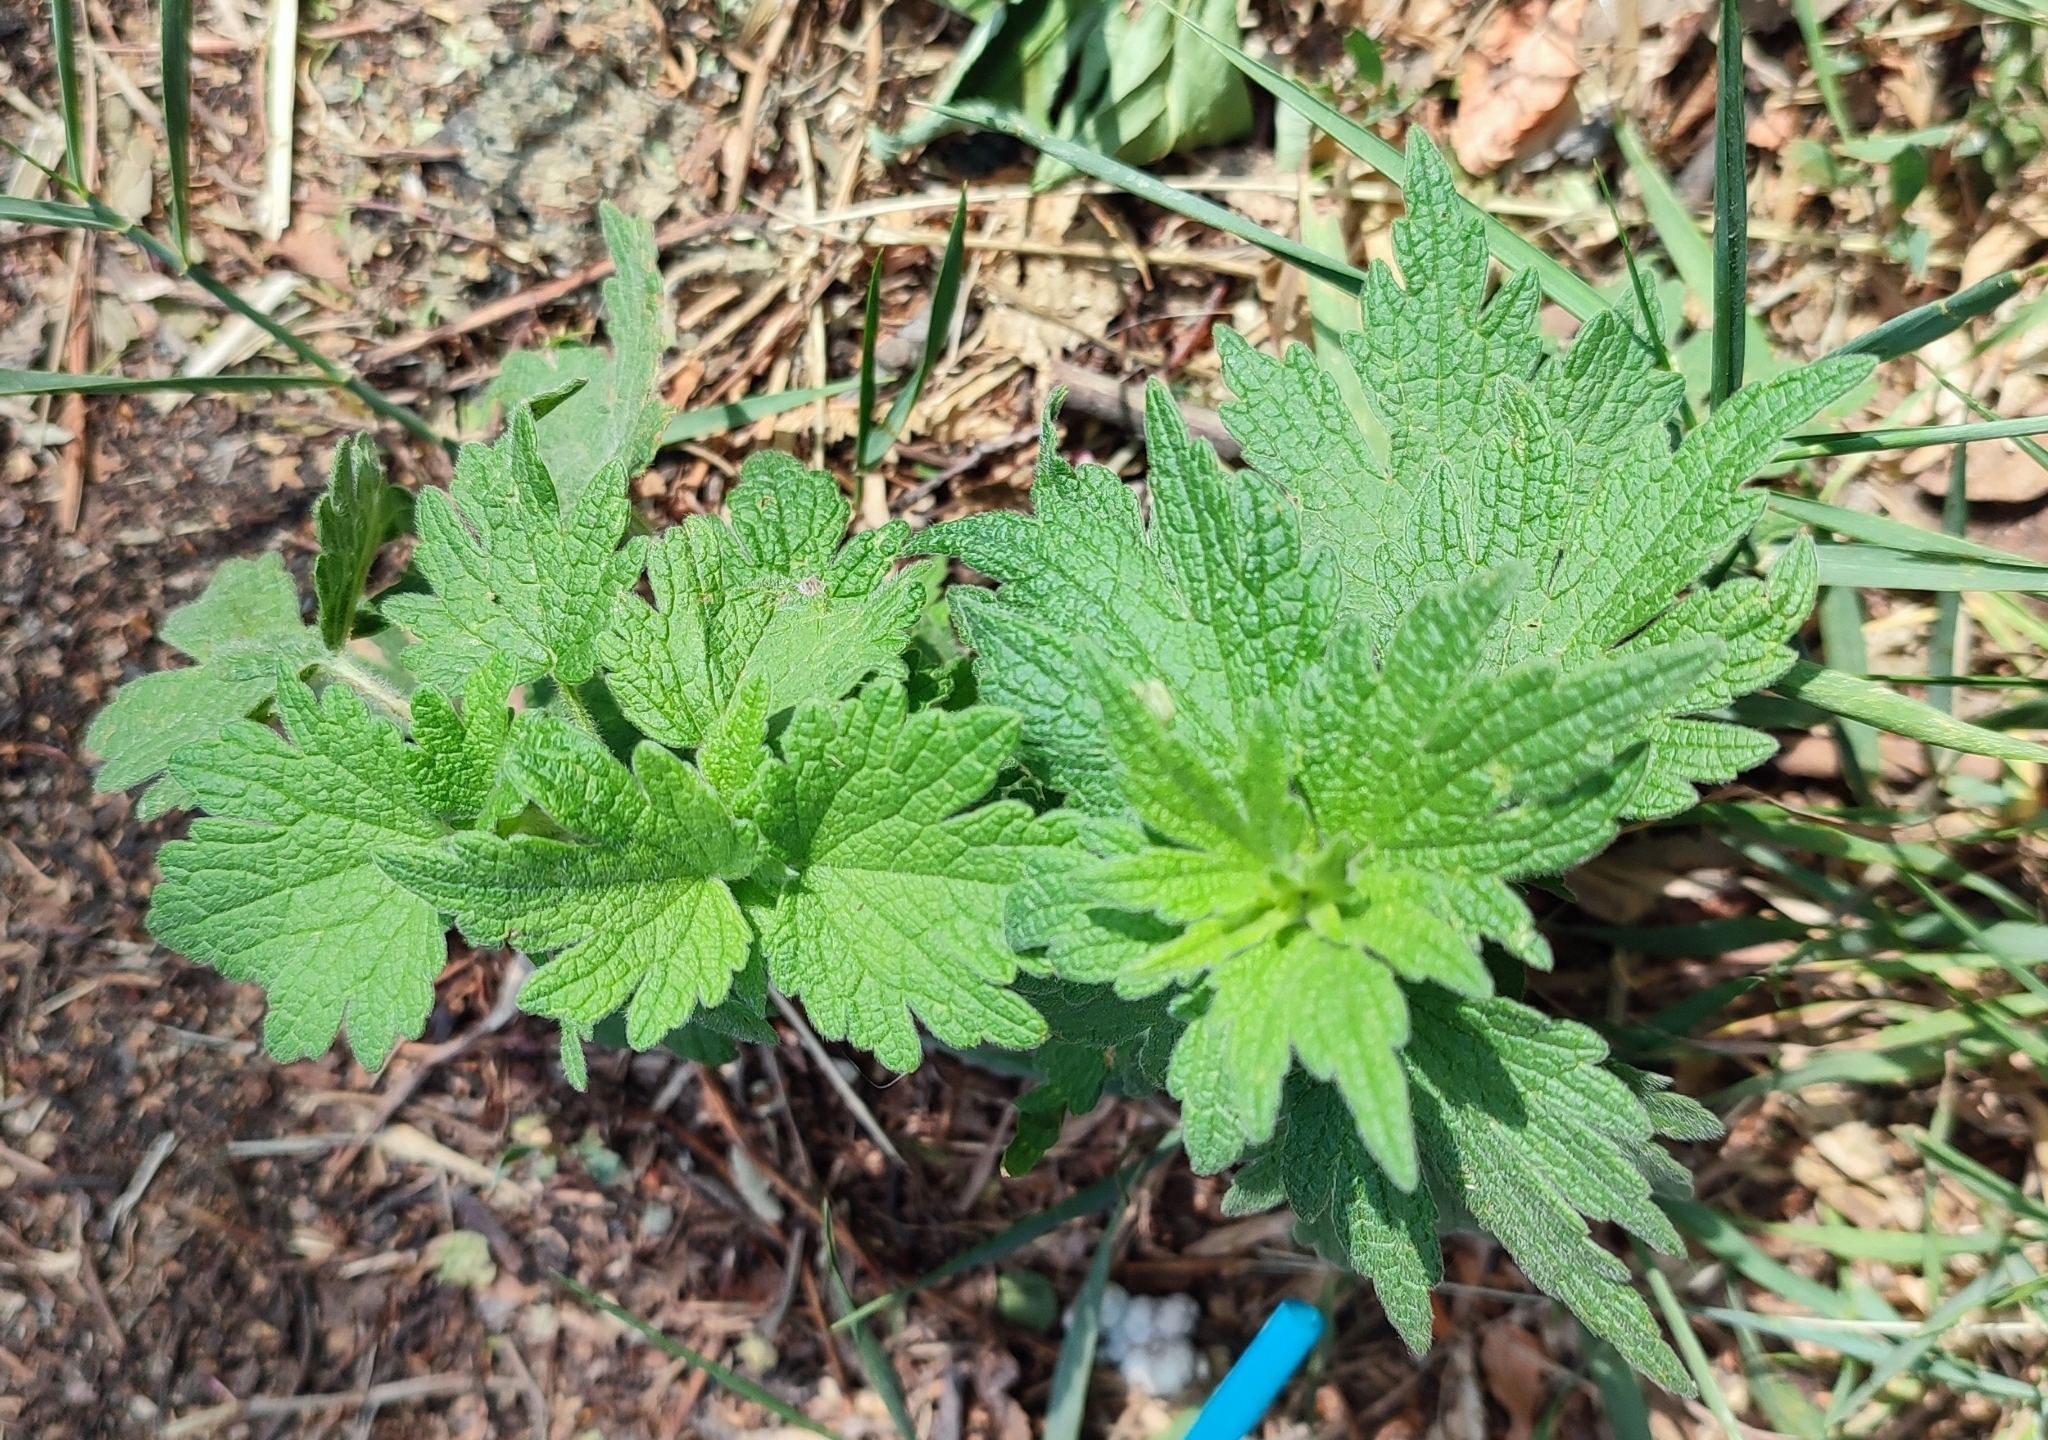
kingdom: Plantae
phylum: Tracheophyta
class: Magnoliopsida
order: Lamiales
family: Lamiaceae
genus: Leonurus
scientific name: Leonurus quinquelobatus
